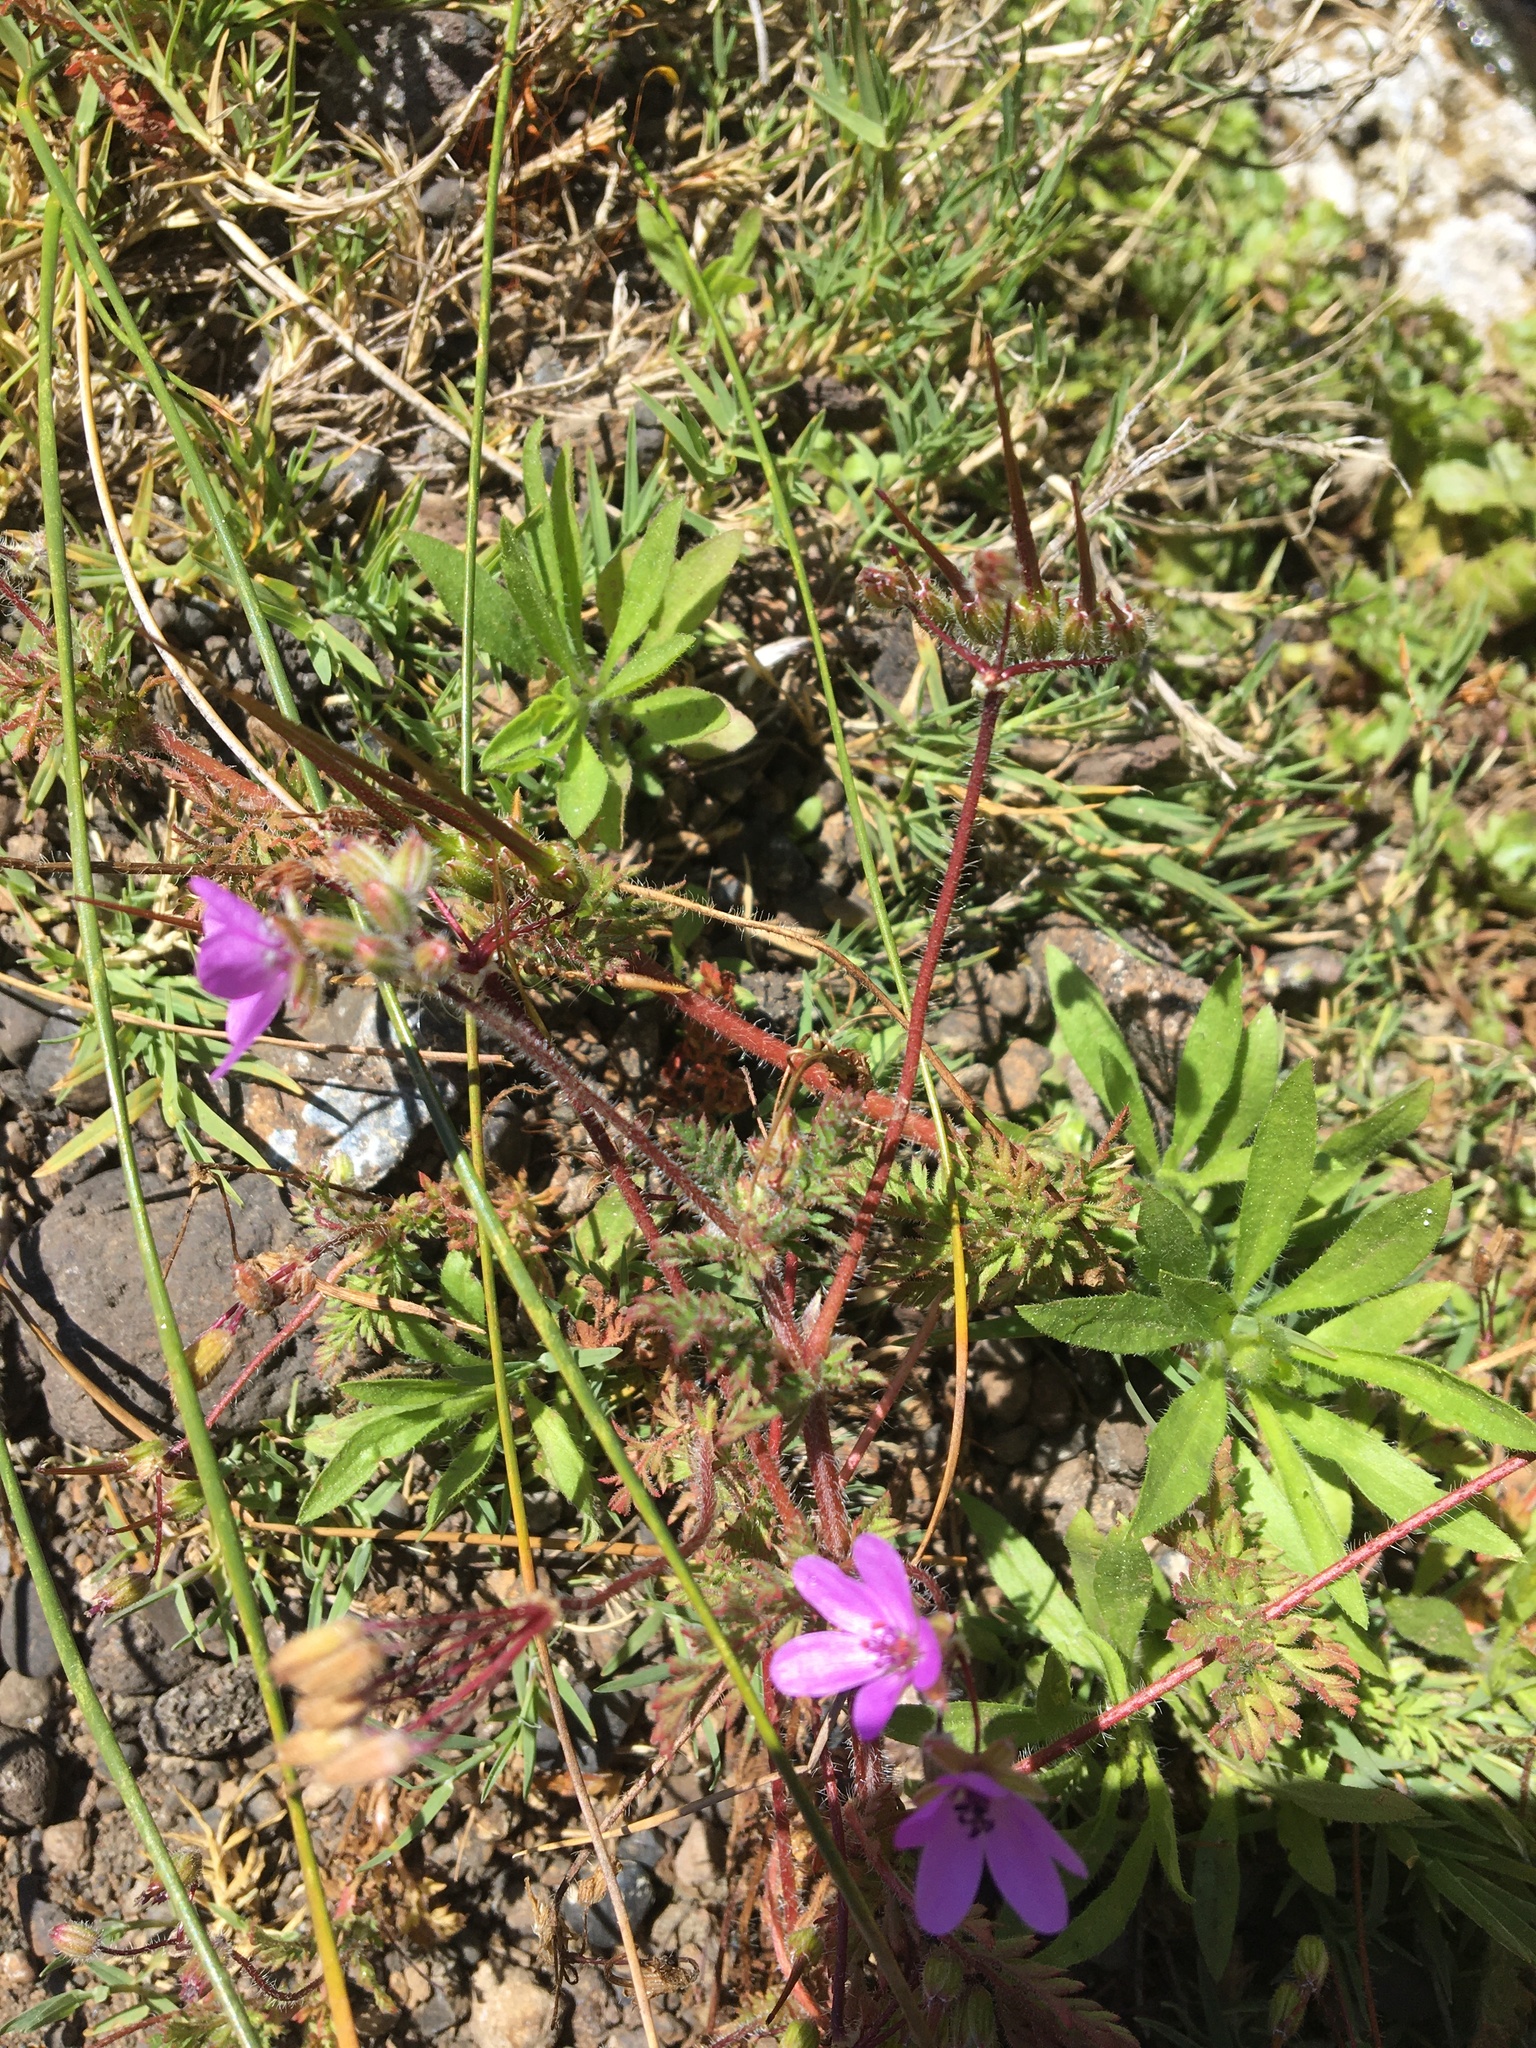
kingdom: Plantae
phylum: Tracheophyta
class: Magnoliopsida
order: Geraniales
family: Geraniaceae
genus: Erodium
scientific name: Erodium cicutarium
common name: Common stork's-bill
